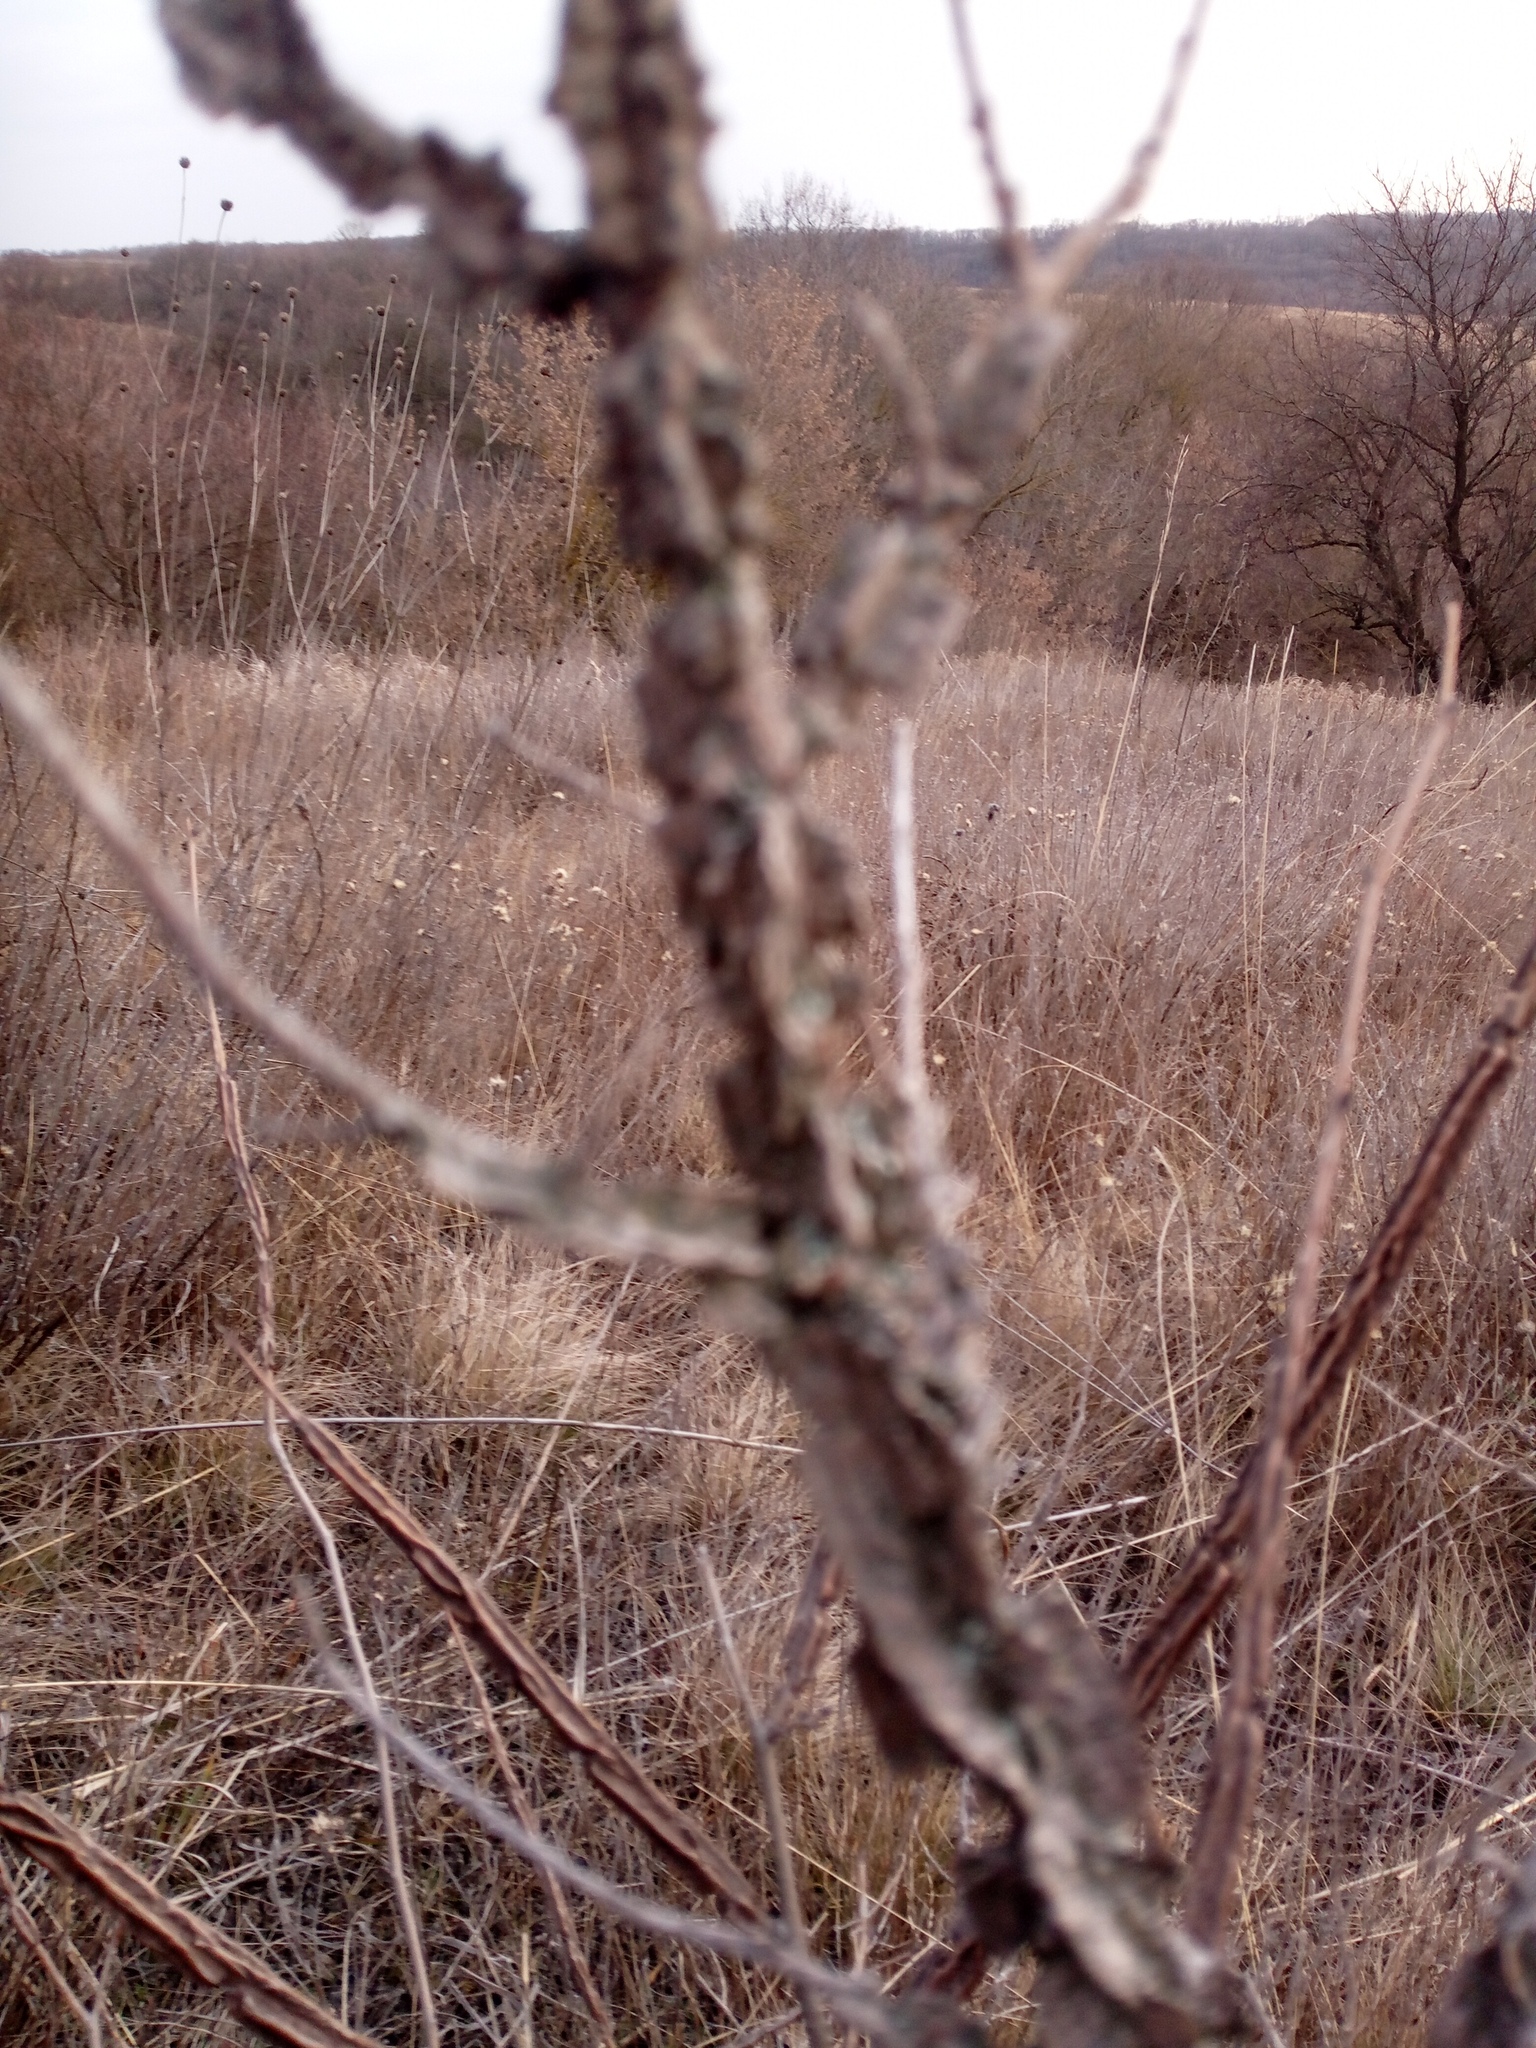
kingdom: Plantae
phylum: Tracheophyta
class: Magnoliopsida
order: Rosales
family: Ulmaceae
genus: Ulmus
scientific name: Ulmus minor
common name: Small-leaved elm
